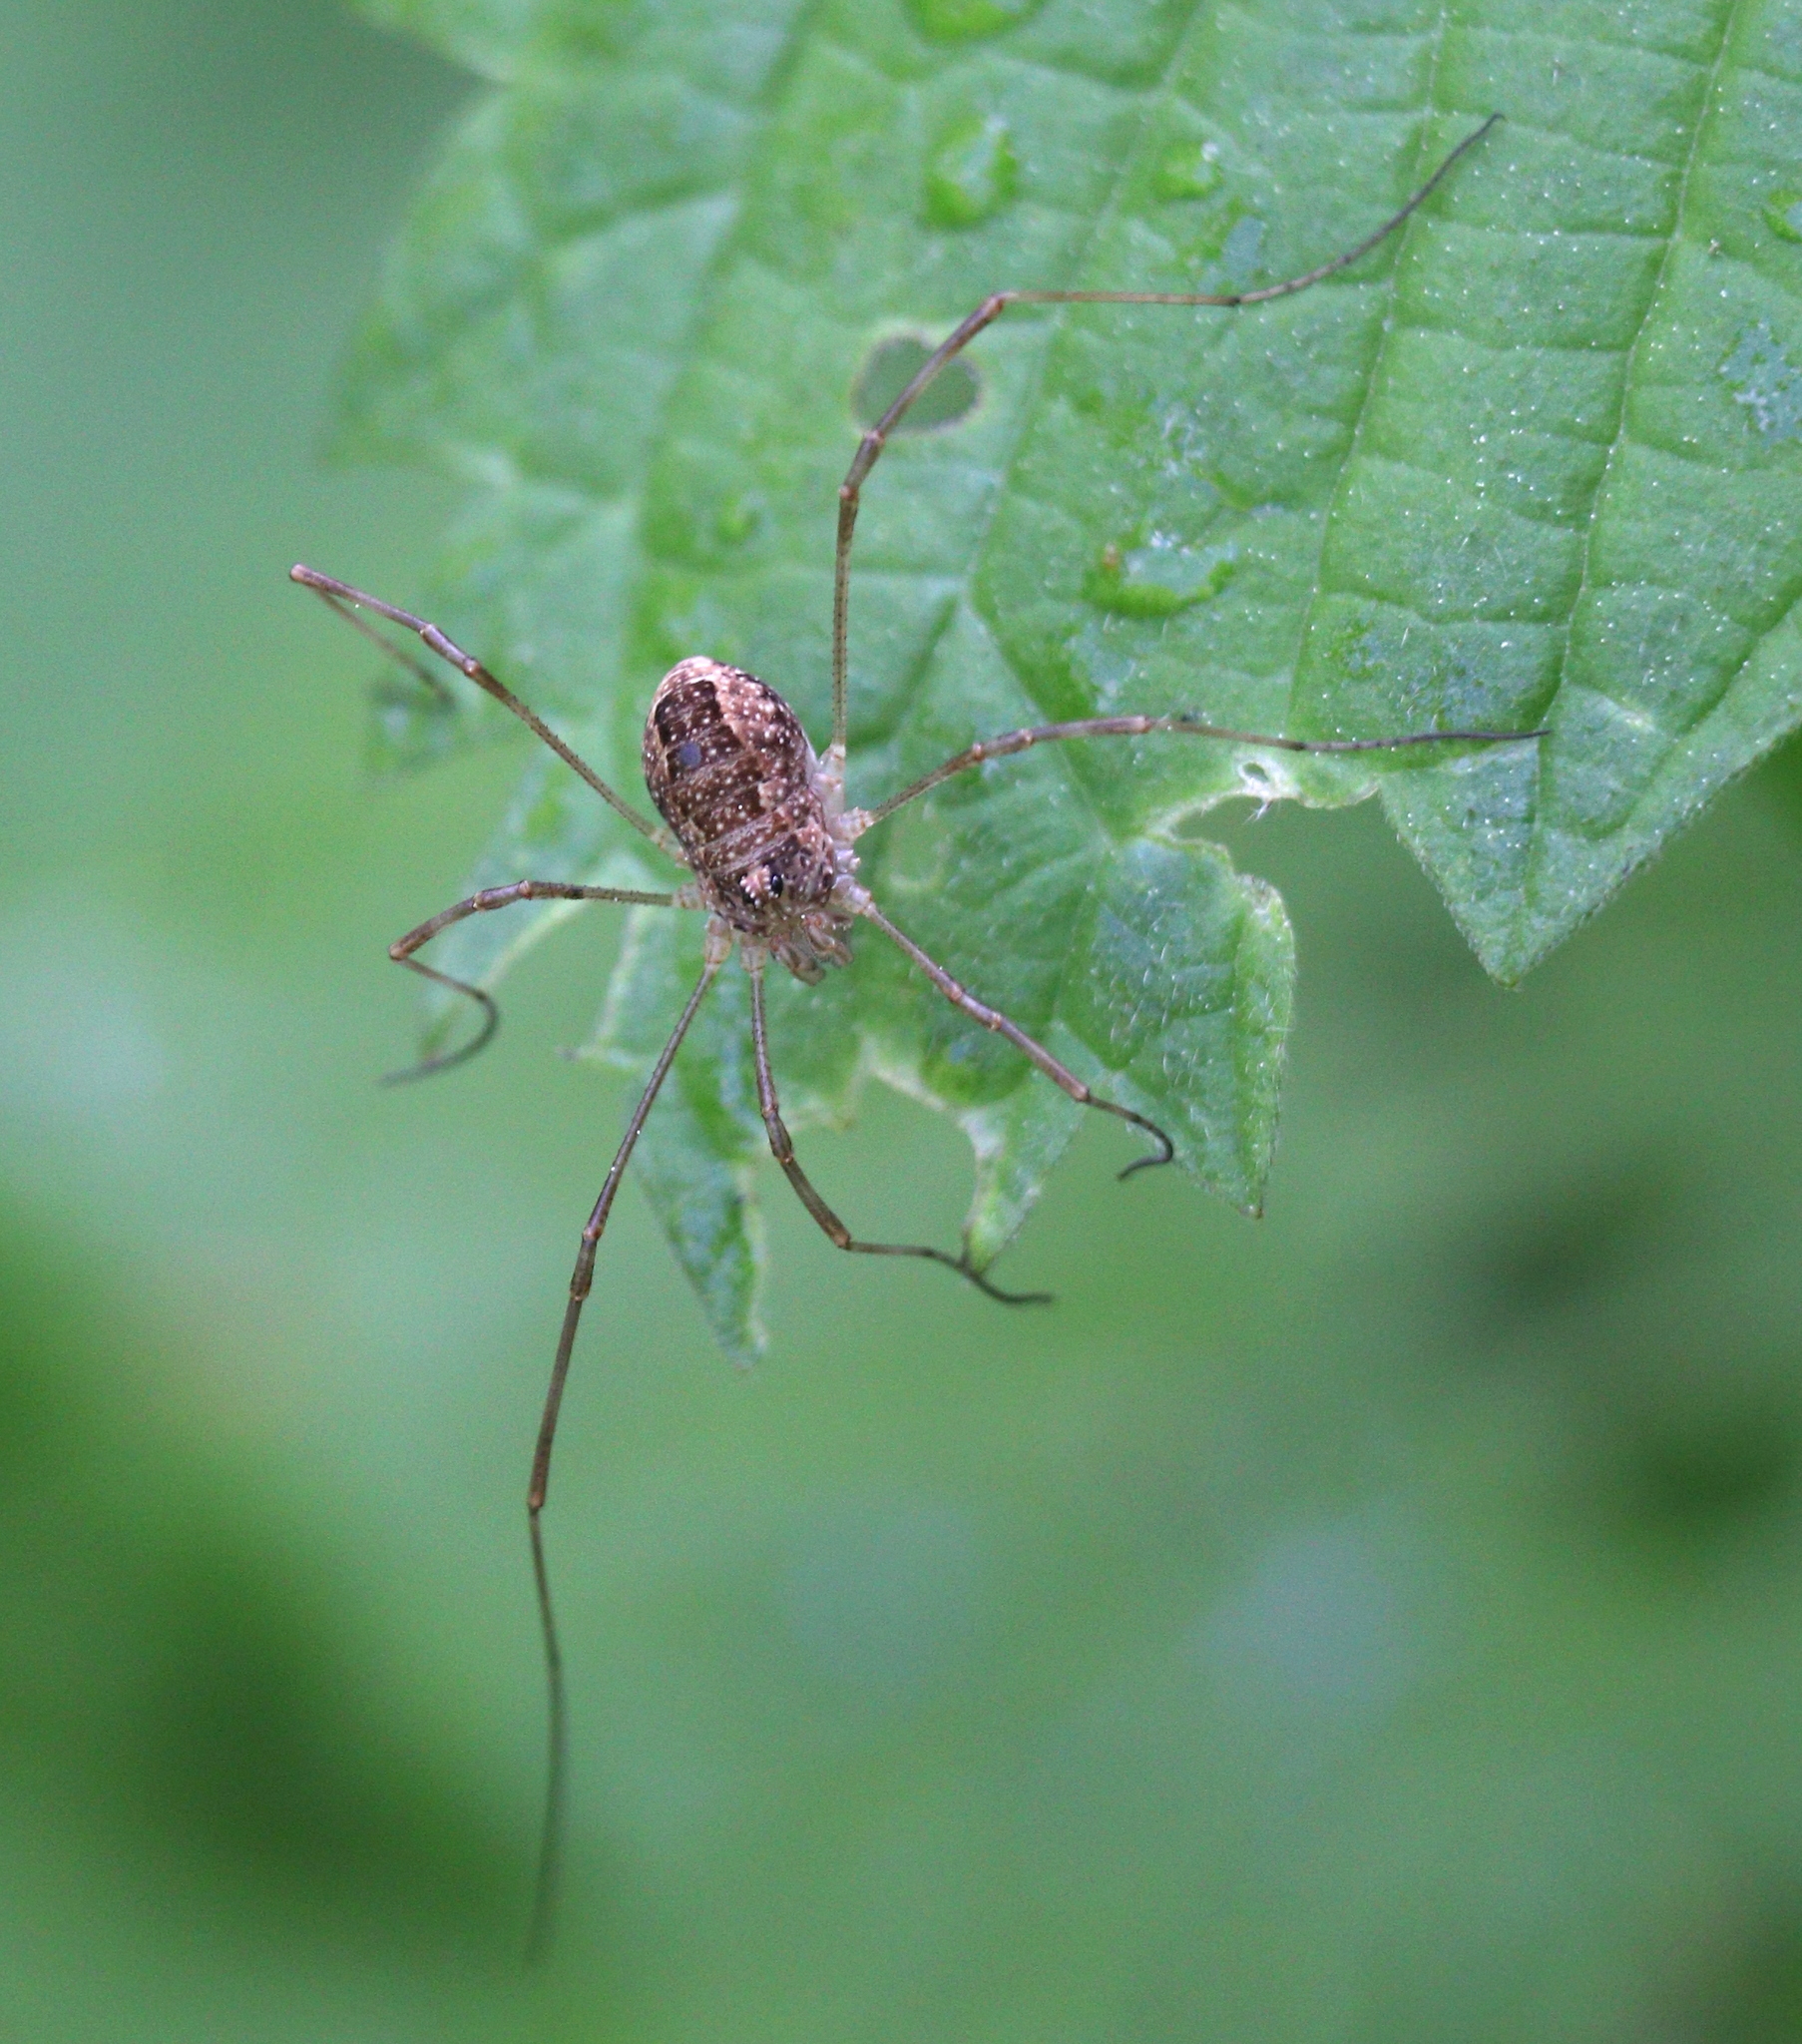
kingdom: Animalia
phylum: Arthropoda
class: Arachnida
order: Opiliones
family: Phalangiidae
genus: Rilaena
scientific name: Rilaena triangularis
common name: Spring harvestman
